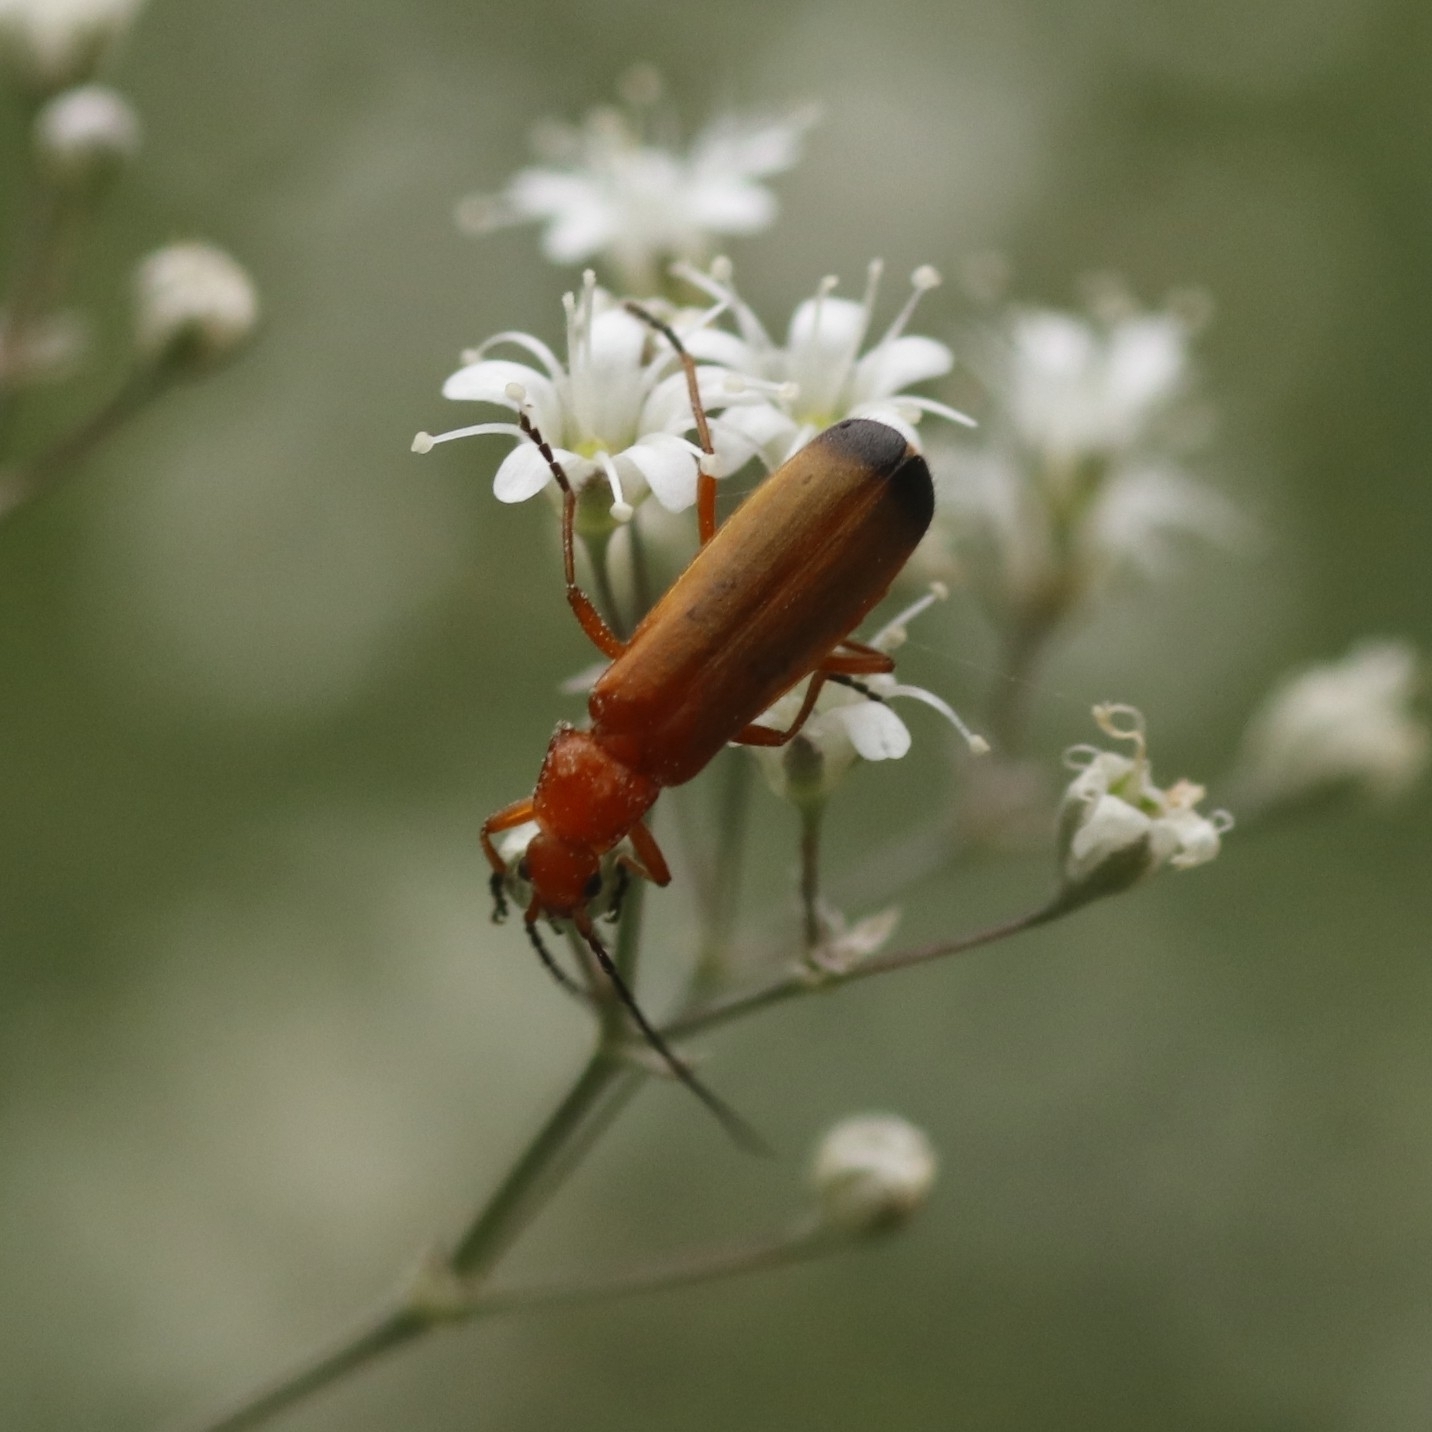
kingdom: Animalia
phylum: Arthropoda
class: Insecta
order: Coleoptera
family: Cantharidae
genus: Rhagonycha
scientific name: Rhagonycha fulva
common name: Common red soldier beetle
